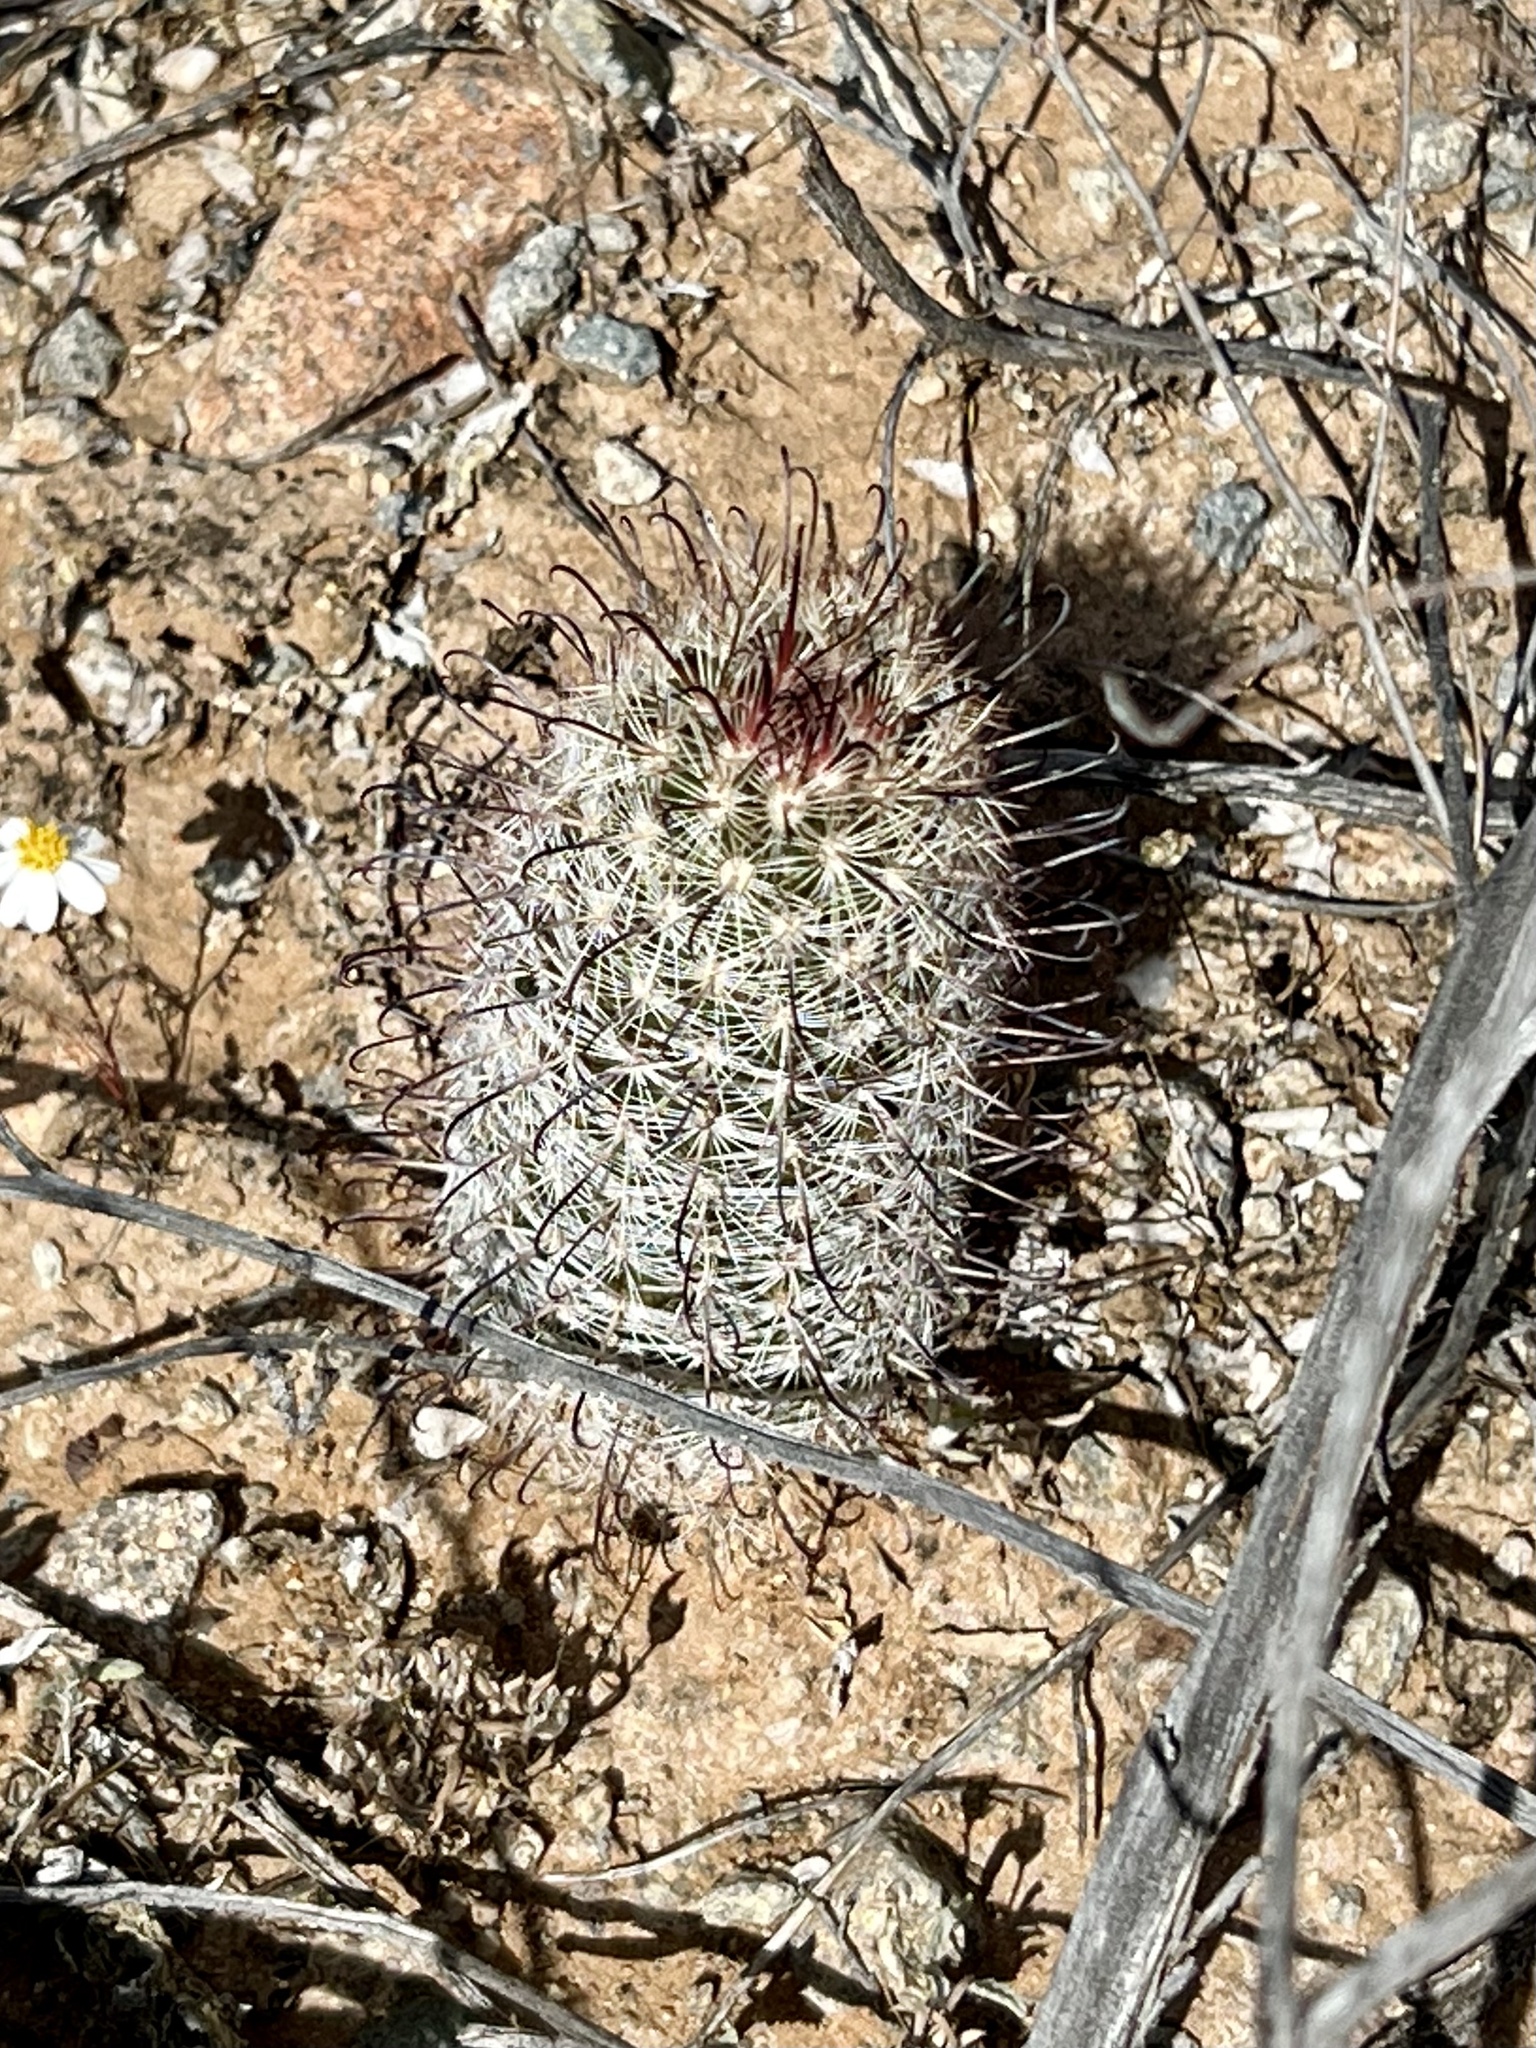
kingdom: Plantae
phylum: Tracheophyta
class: Magnoliopsida
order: Caryophyllales
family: Cactaceae
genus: Cochemiea
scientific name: Cochemiea grahamii
